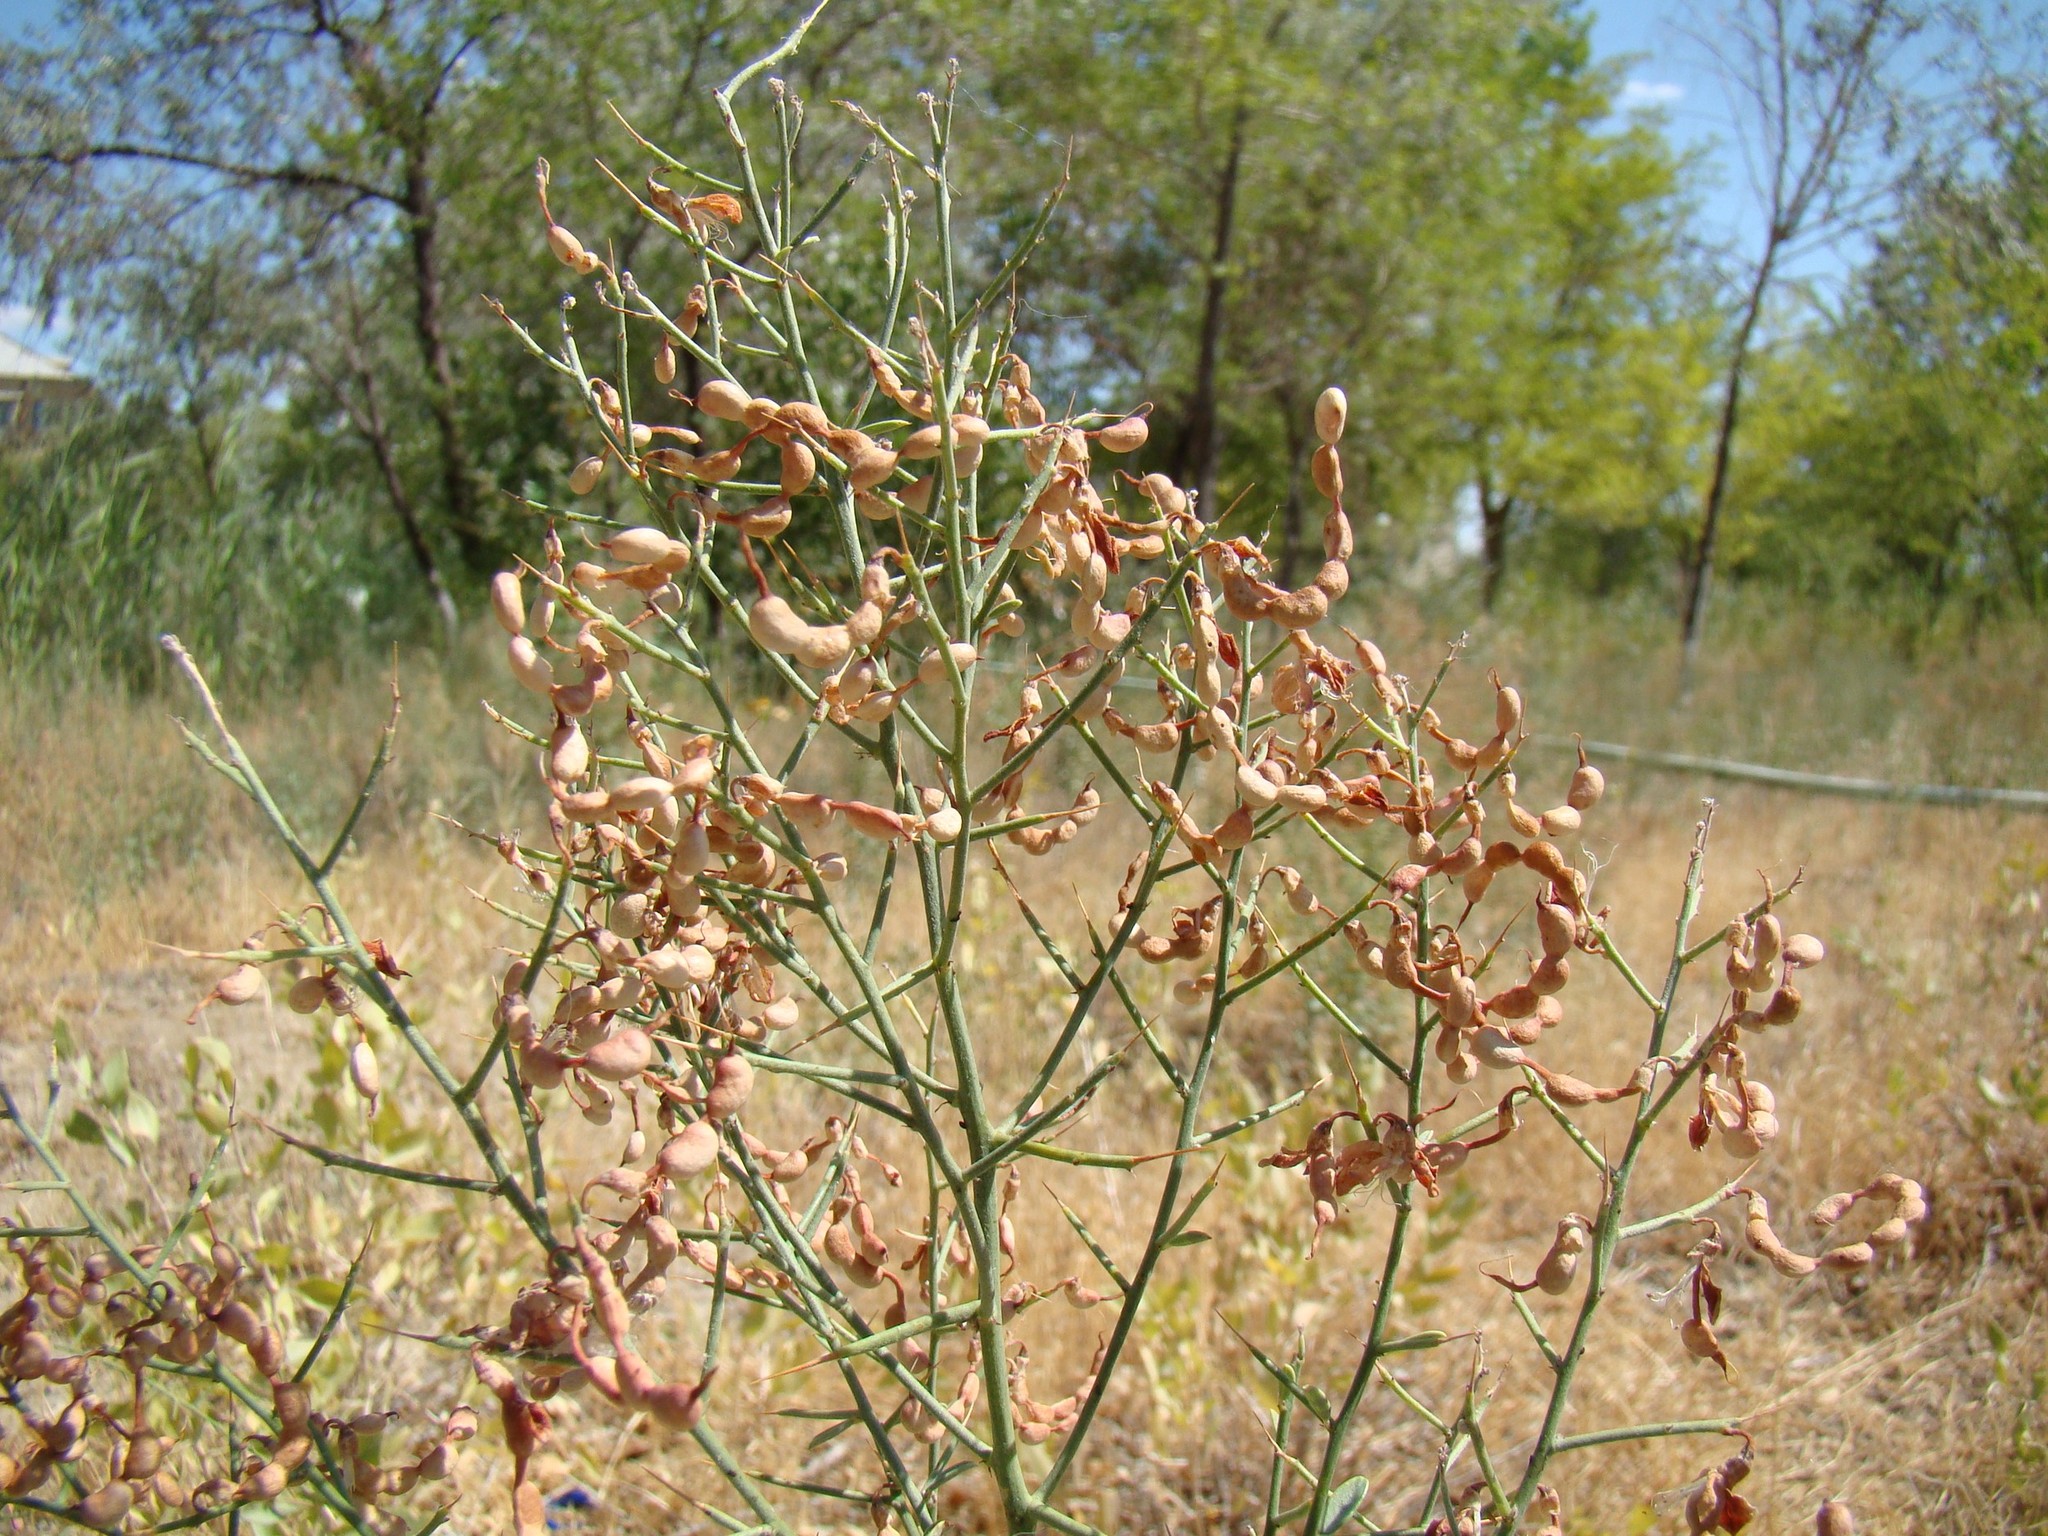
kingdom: Plantae
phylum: Tracheophyta
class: Magnoliopsida
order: Fabales
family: Fabaceae
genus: Alhagi
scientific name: Alhagi pseudalhagi
